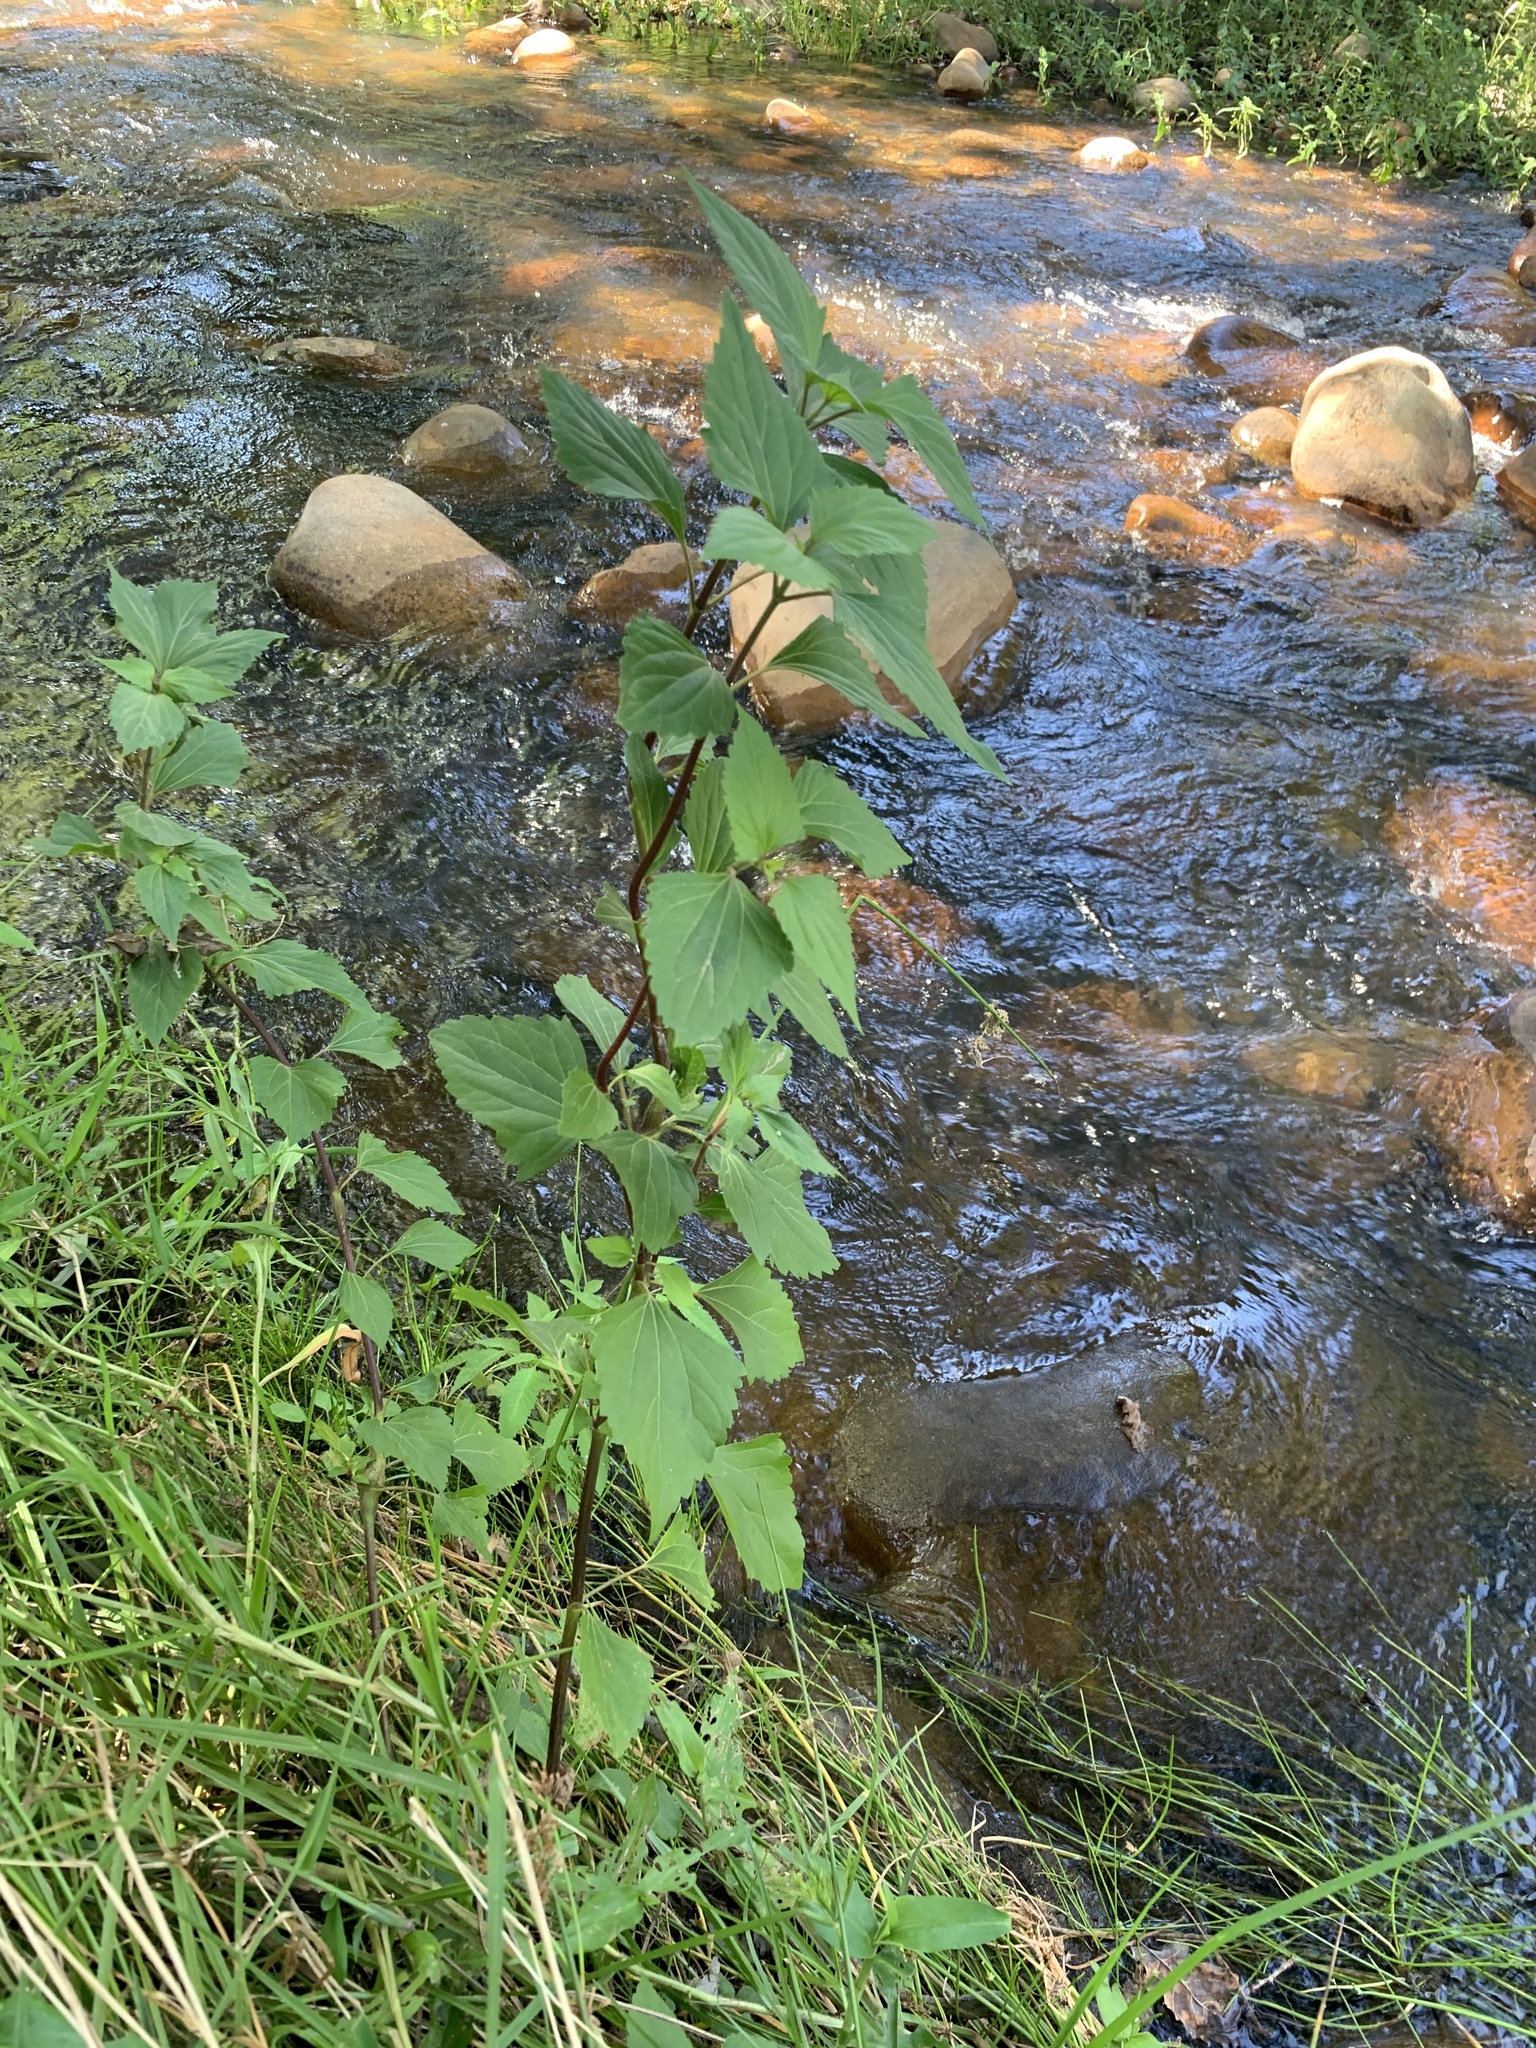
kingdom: Plantae
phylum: Tracheophyta
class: Magnoliopsida
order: Asterales
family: Asteraceae
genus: Ageratina
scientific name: Ageratina adenophora
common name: Sticky snakeroot
